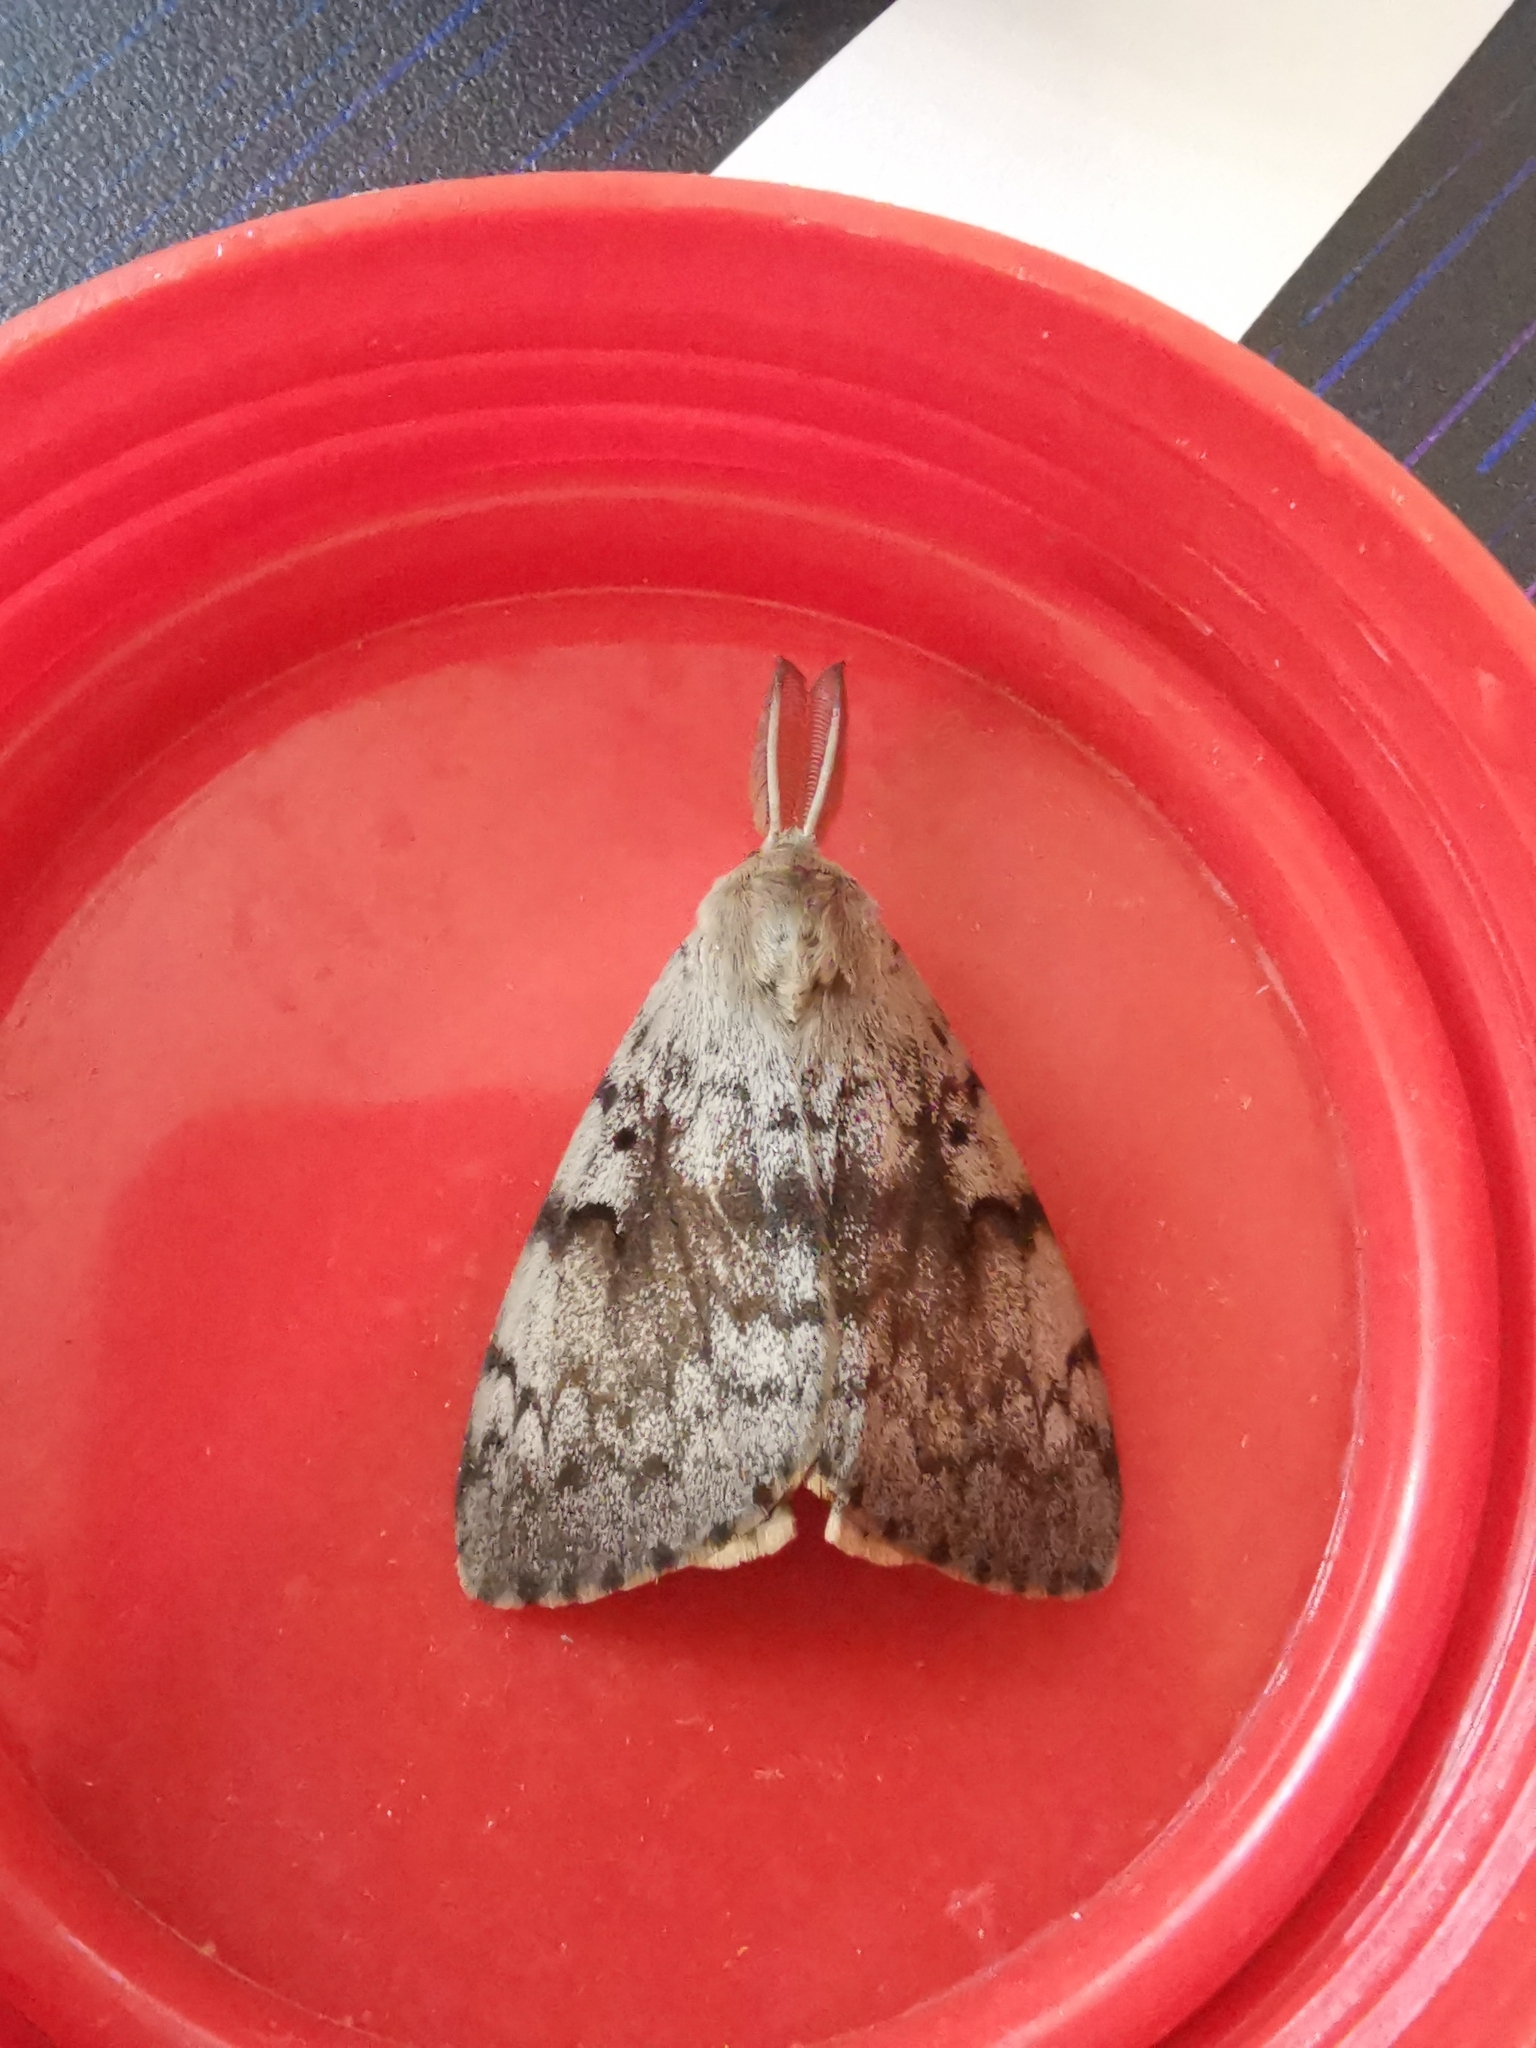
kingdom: Animalia
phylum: Arthropoda
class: Insecta
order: Lepidoptera
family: Erebidae
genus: Lymantria
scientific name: Lymantria dispar
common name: Gypsy moth
